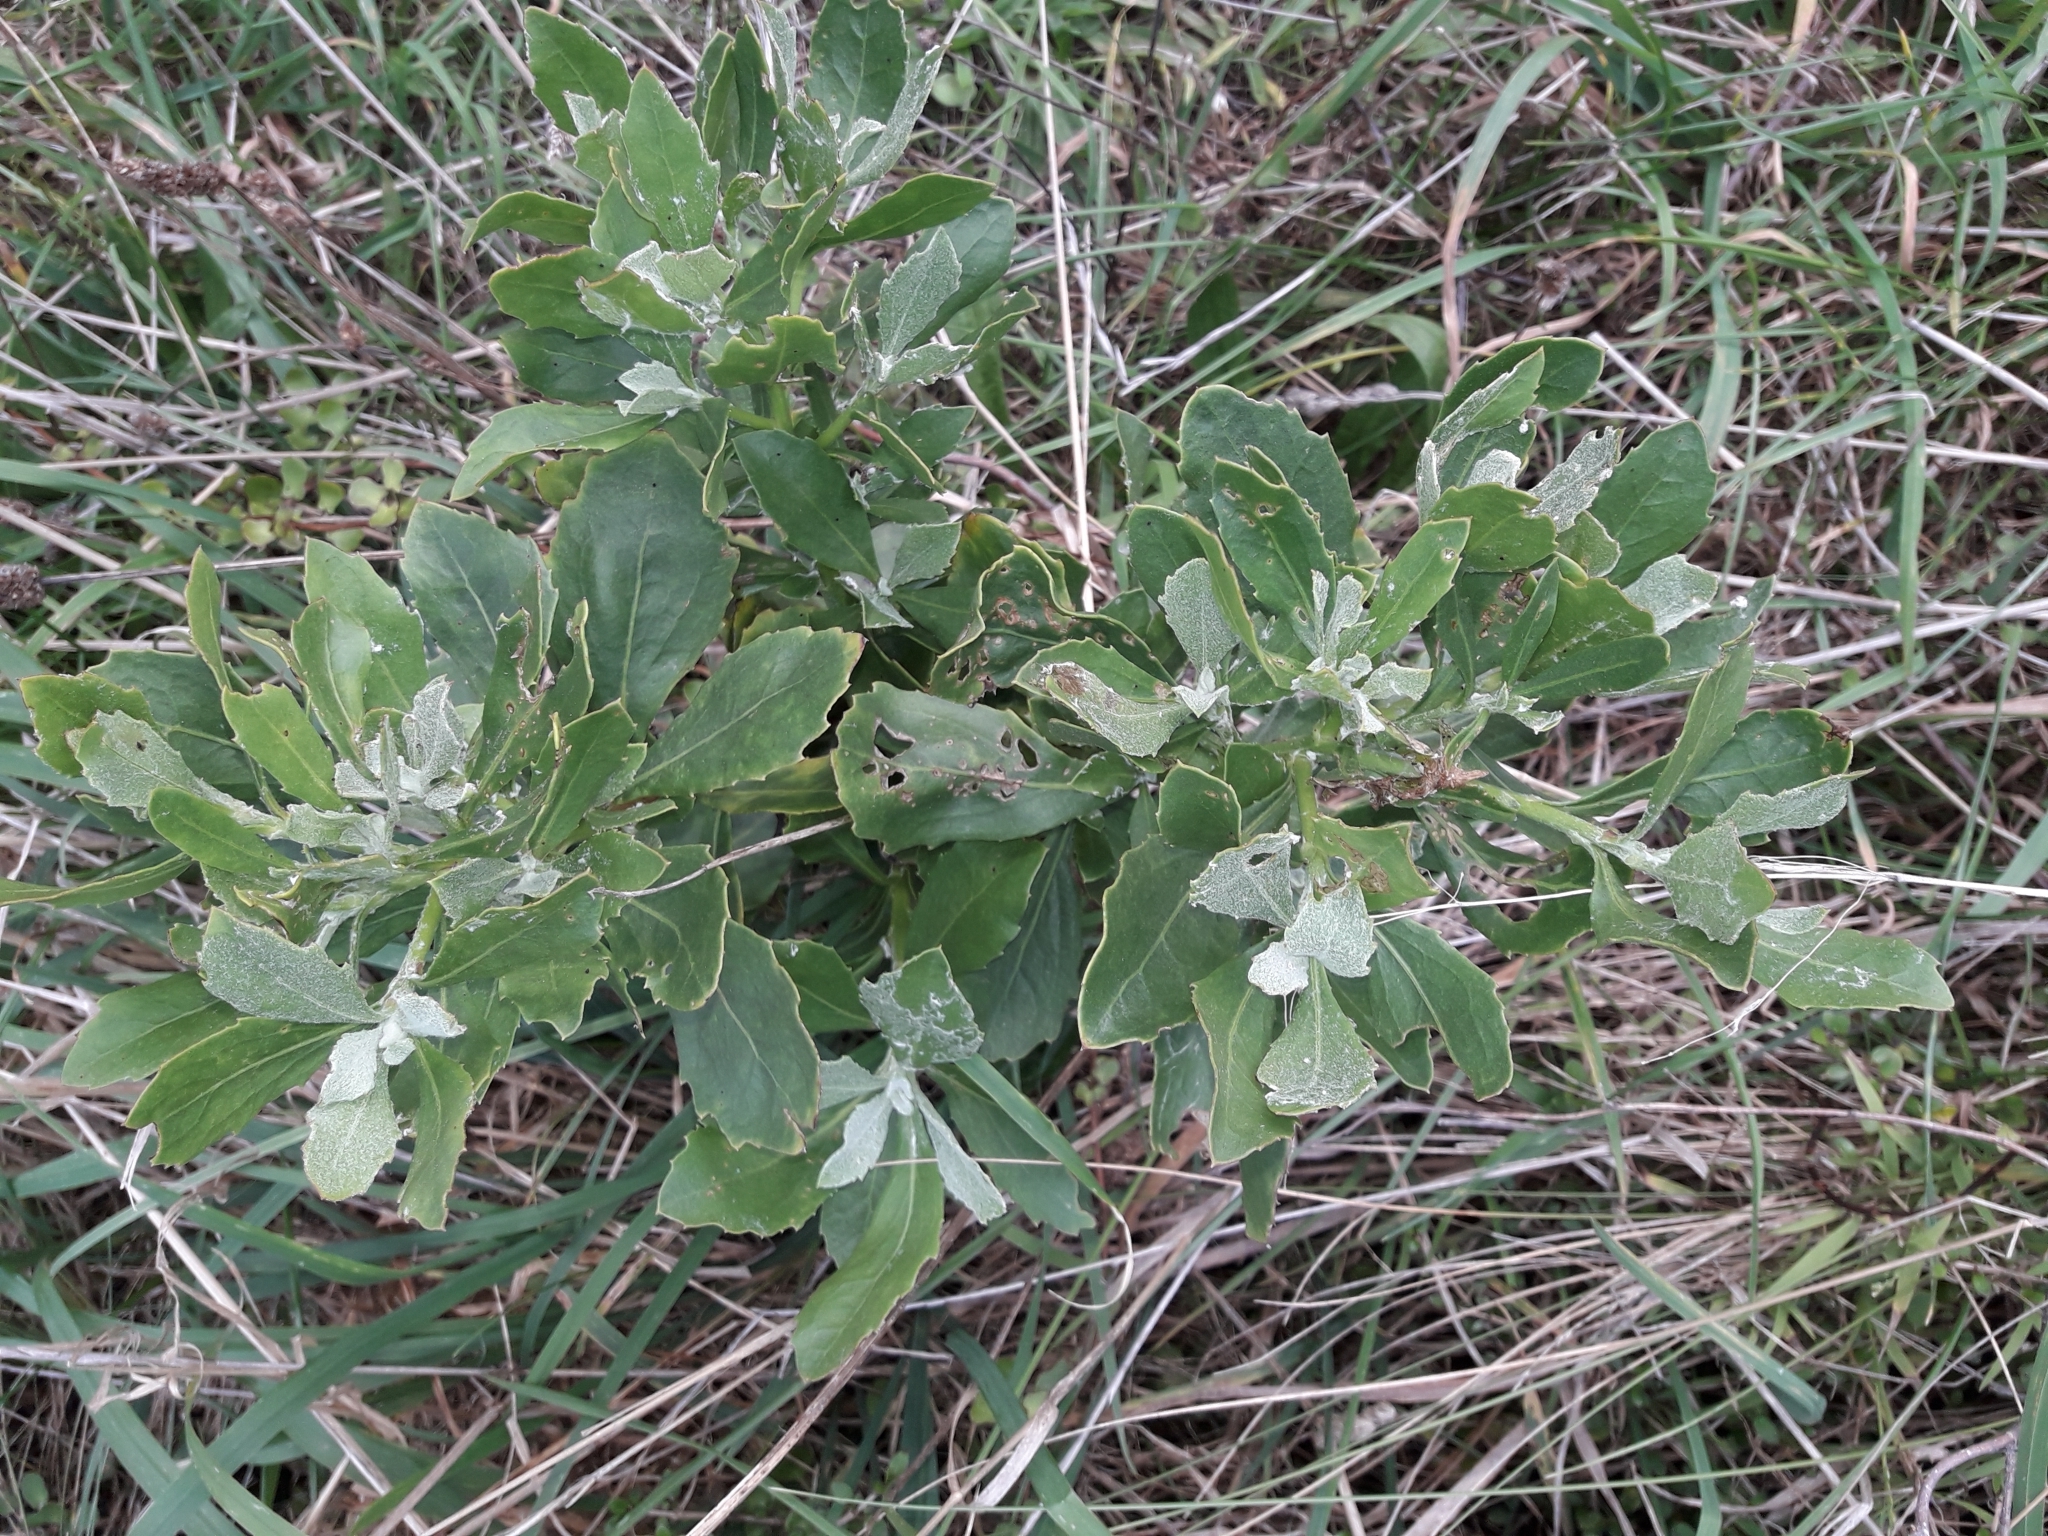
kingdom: Plantae
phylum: Tracheophyta
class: Magnoliopsida
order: Asterales
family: Asteraceae
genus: Osteospermum
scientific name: Osteospermum moniliferum
